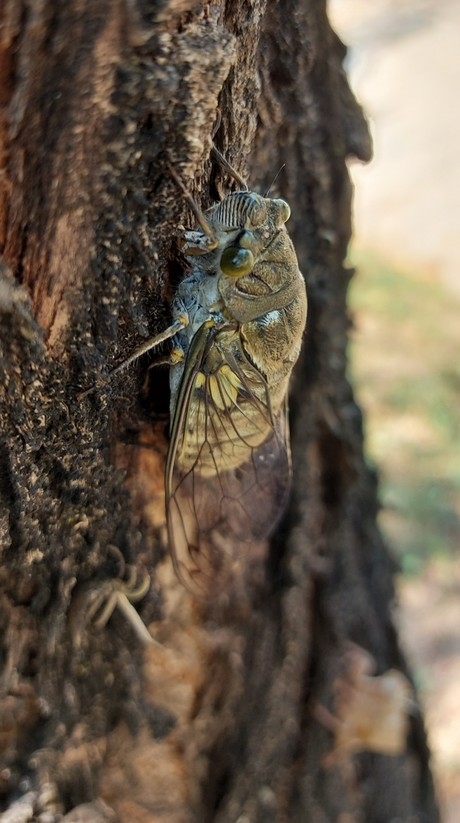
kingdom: Animalia
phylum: Arthropoda
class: Insecta
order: Hemiptera
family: Cicadidae
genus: Quesada
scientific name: Quesada gigas
